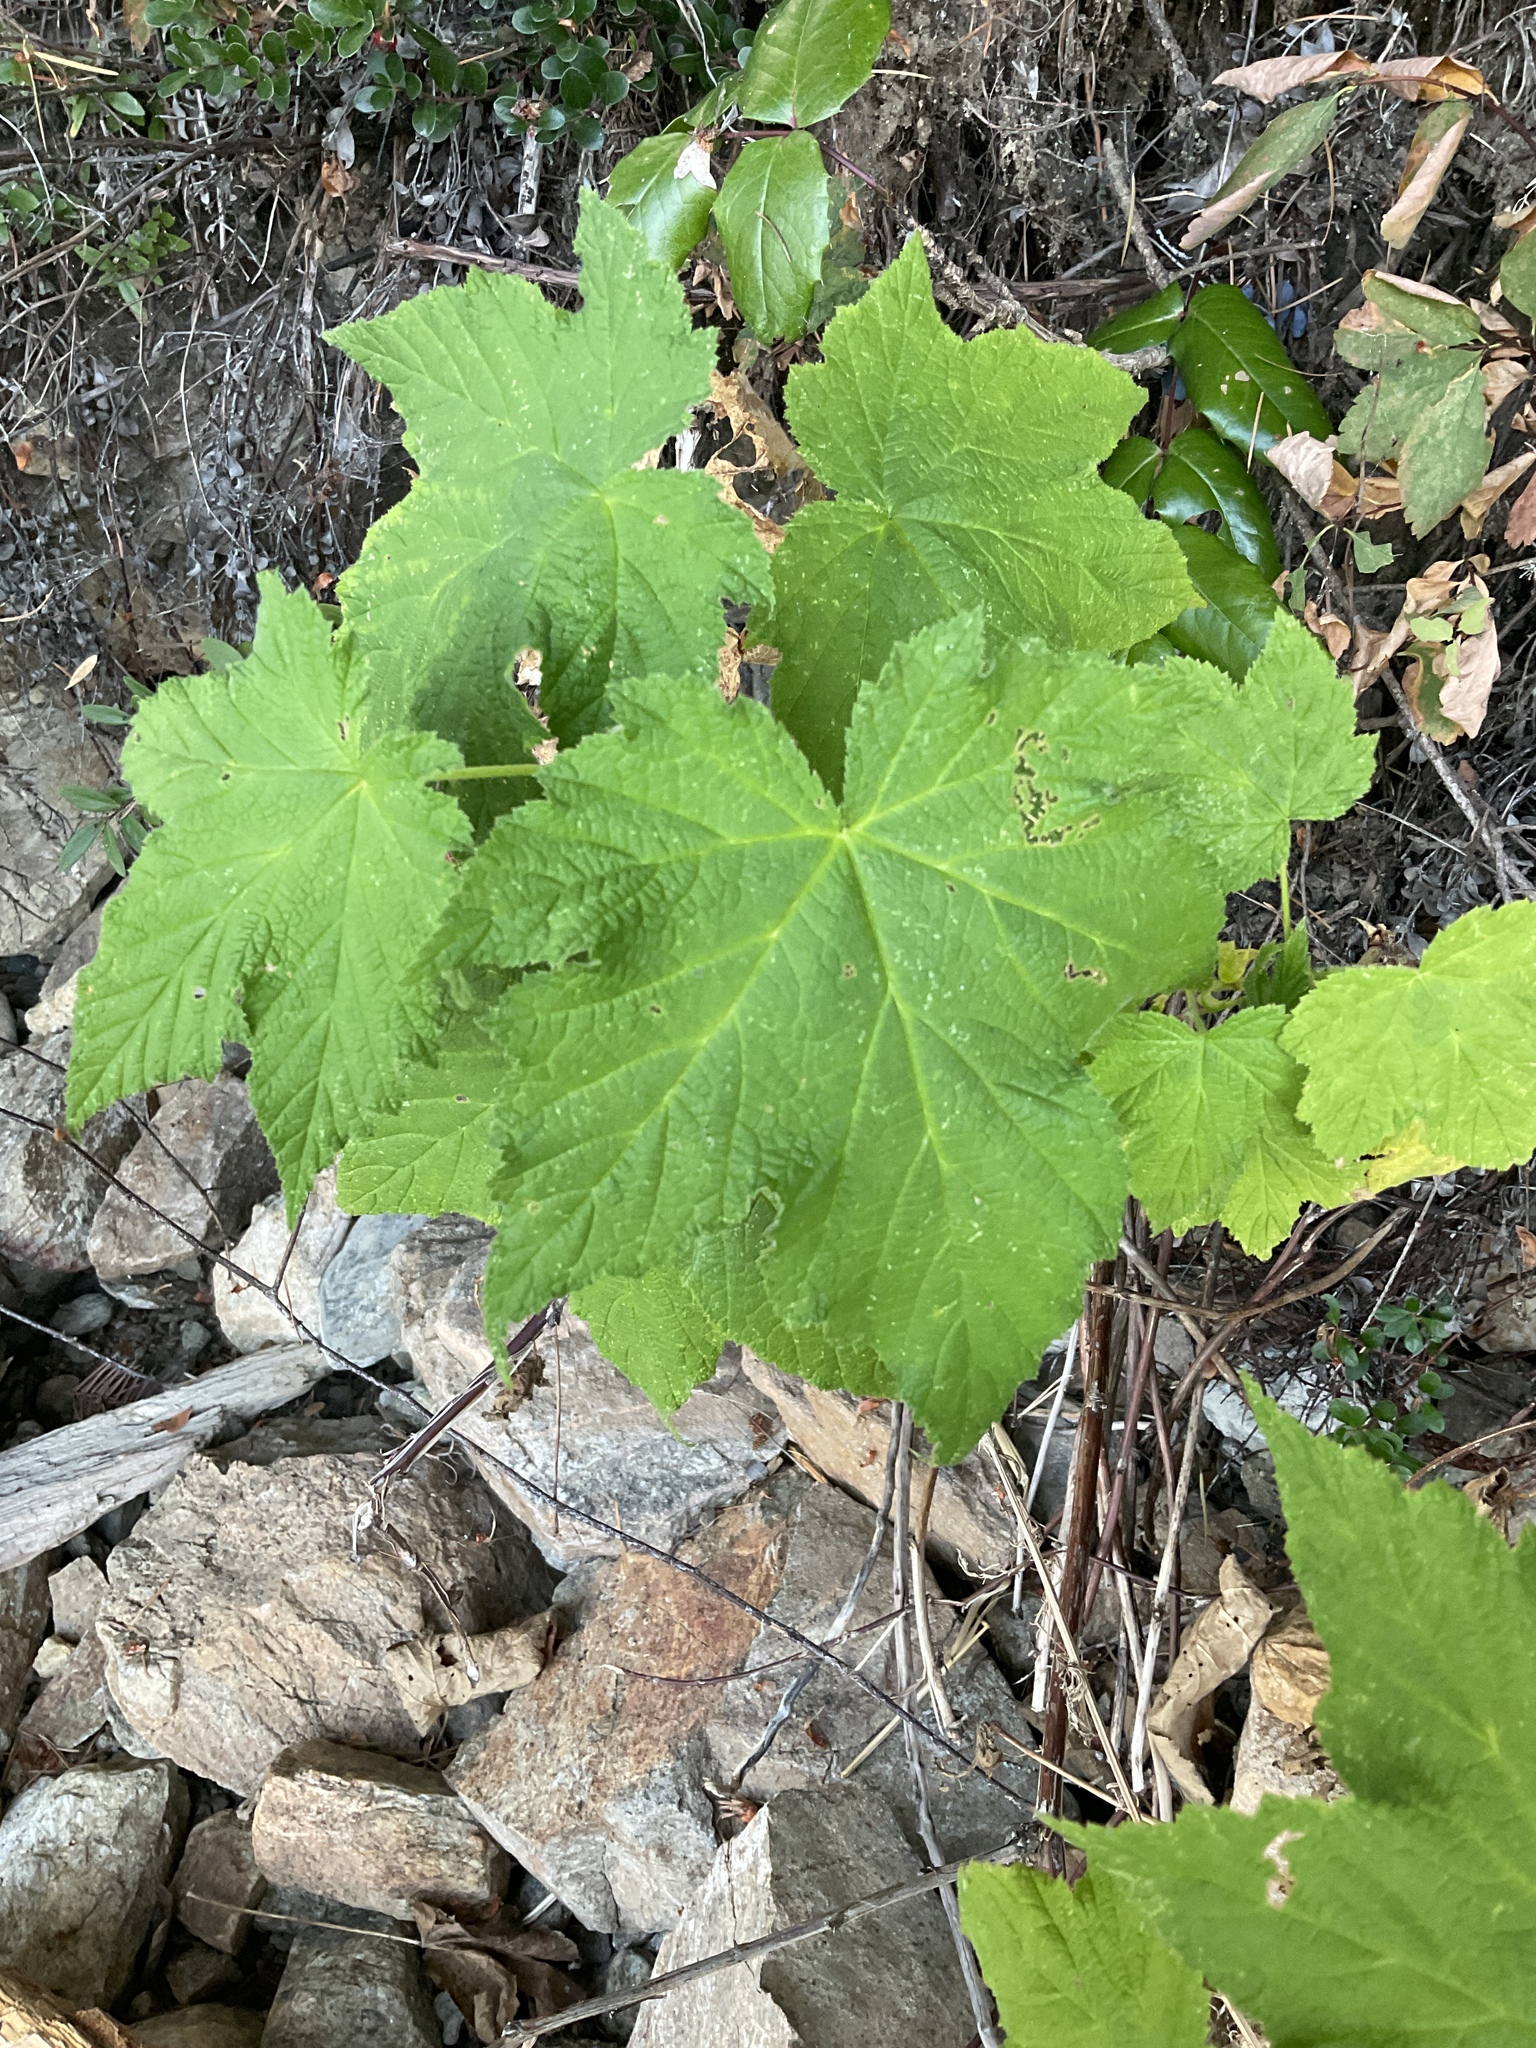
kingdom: Plantae
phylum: Tracheophyta
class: Magnoliopsida
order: Rosales
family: Rosaceae
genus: Rubus
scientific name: Rubus parviflorus
